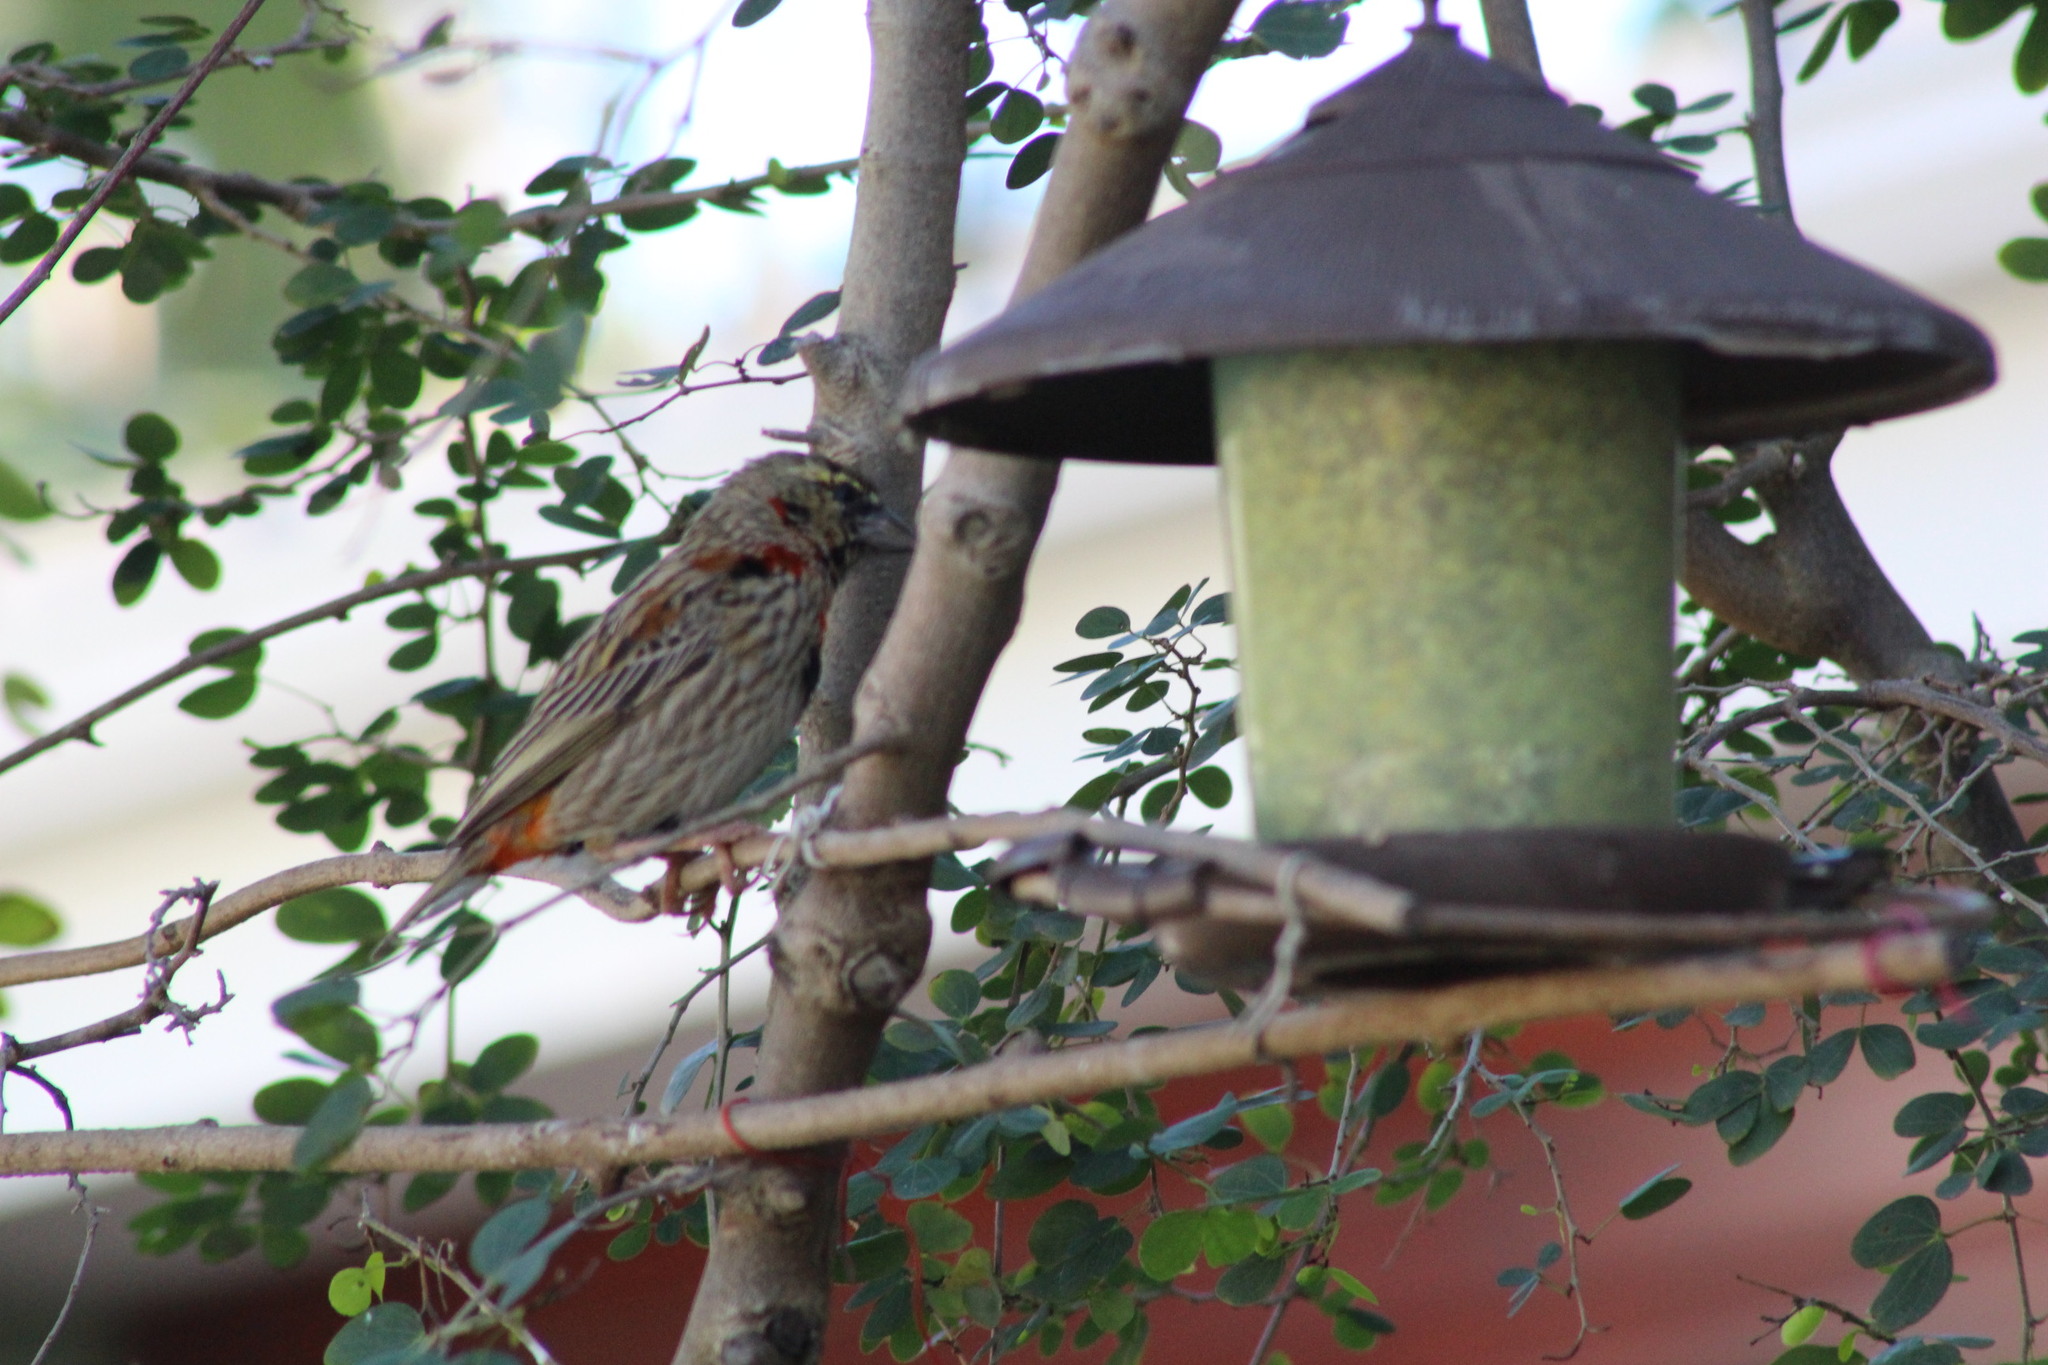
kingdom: Animalia
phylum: Chordata
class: Aves
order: Passeriformes
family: Ploceidae
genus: Euplectes
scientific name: Euplectes orix
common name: Southern red bishop
